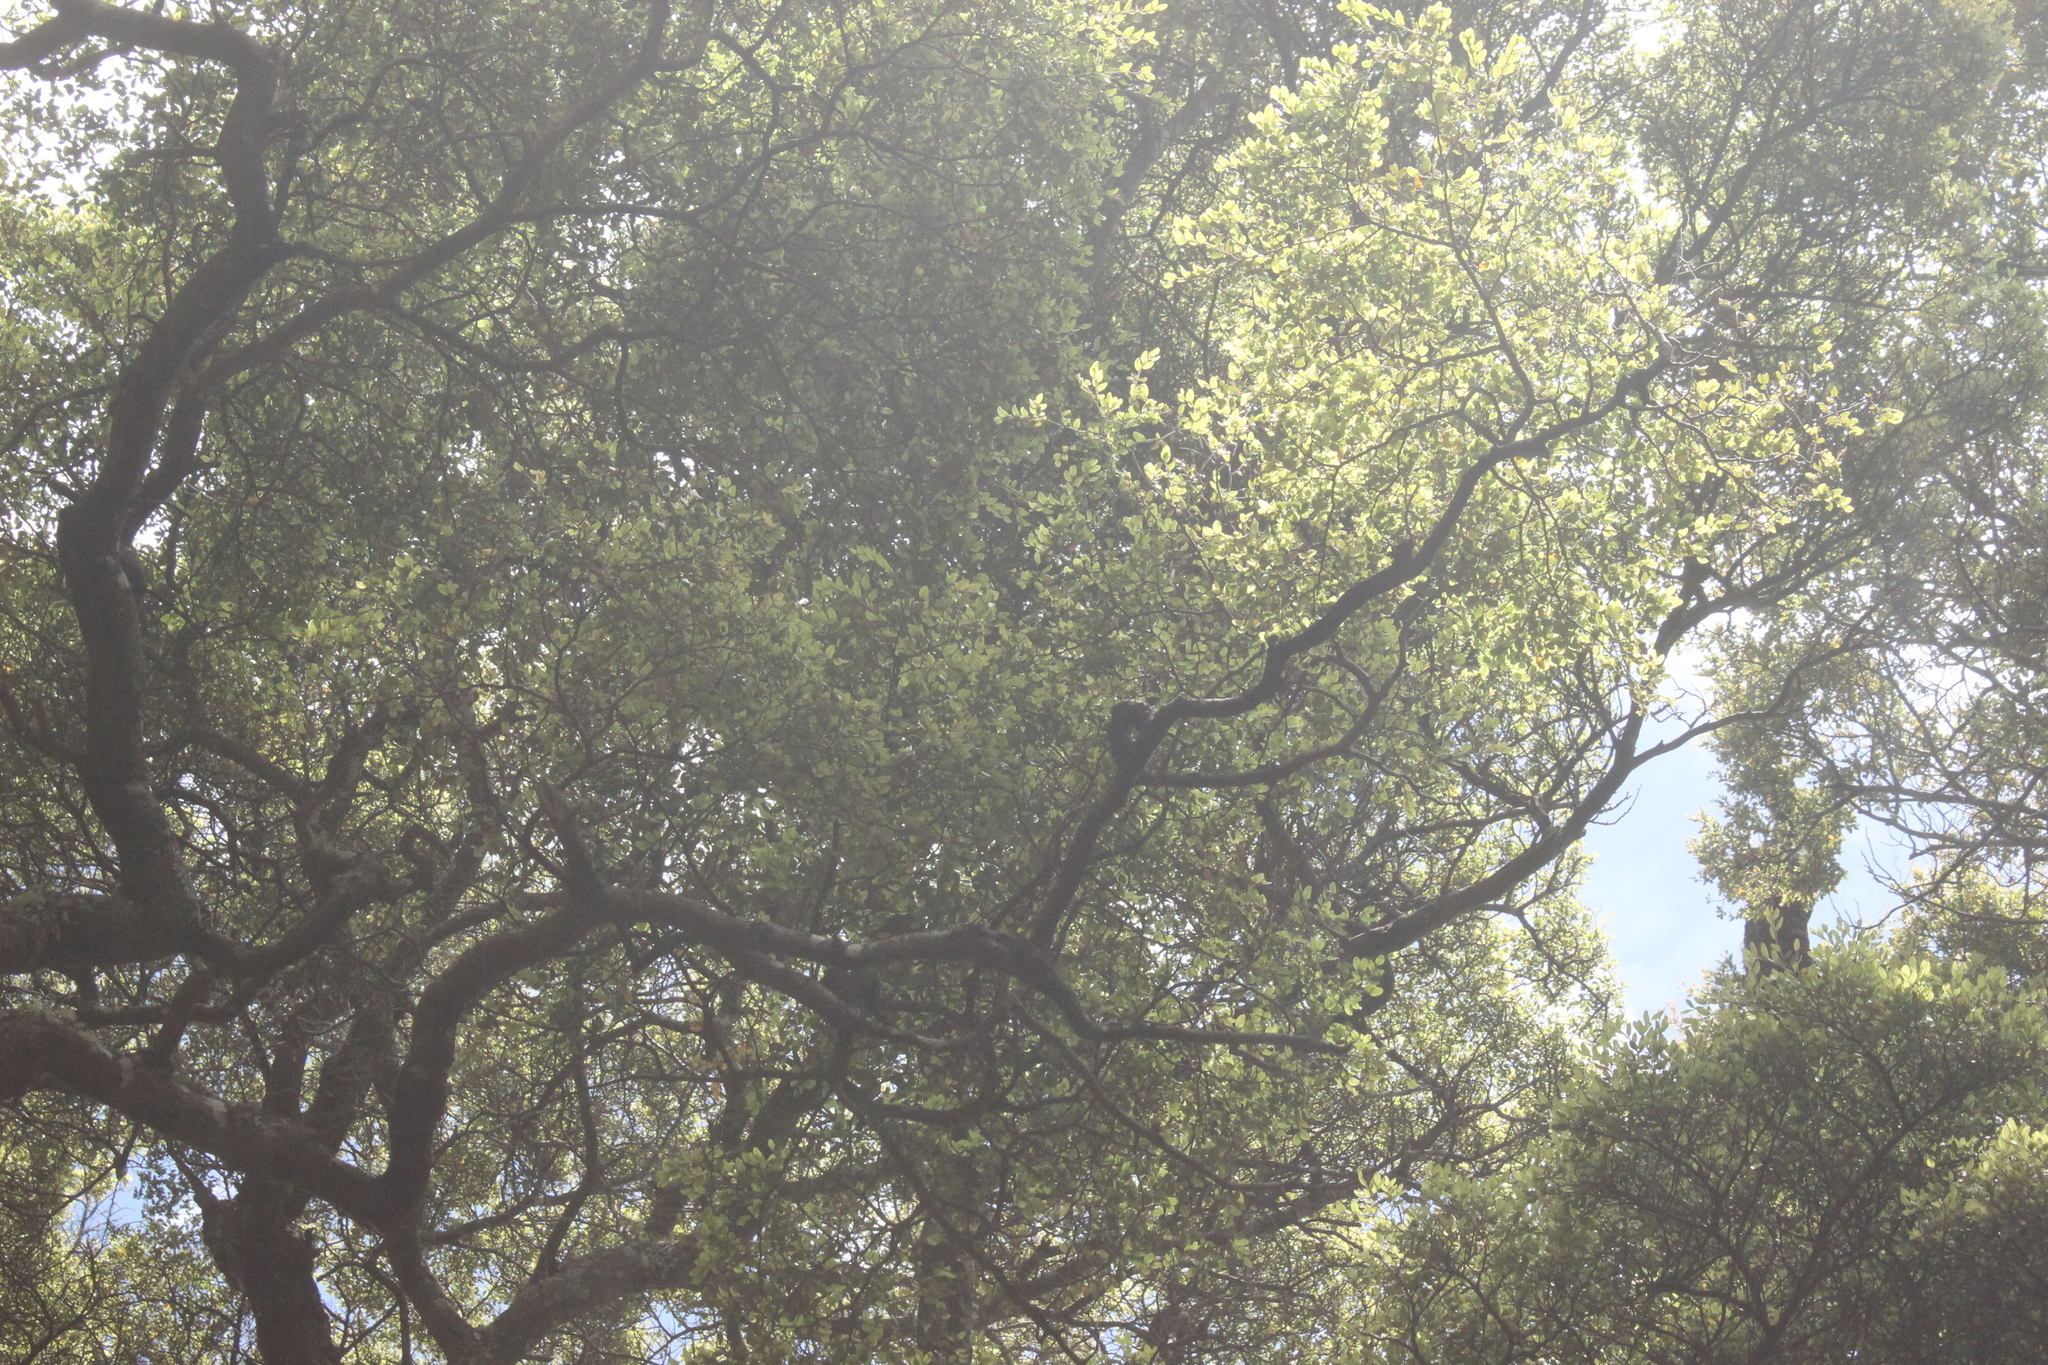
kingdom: Plantae
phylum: Tracheophyta
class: Magnoliopsida
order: Fagales
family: Nothofagaceae
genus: Nothofagus
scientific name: Nothofagus truncata
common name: Hard beech
